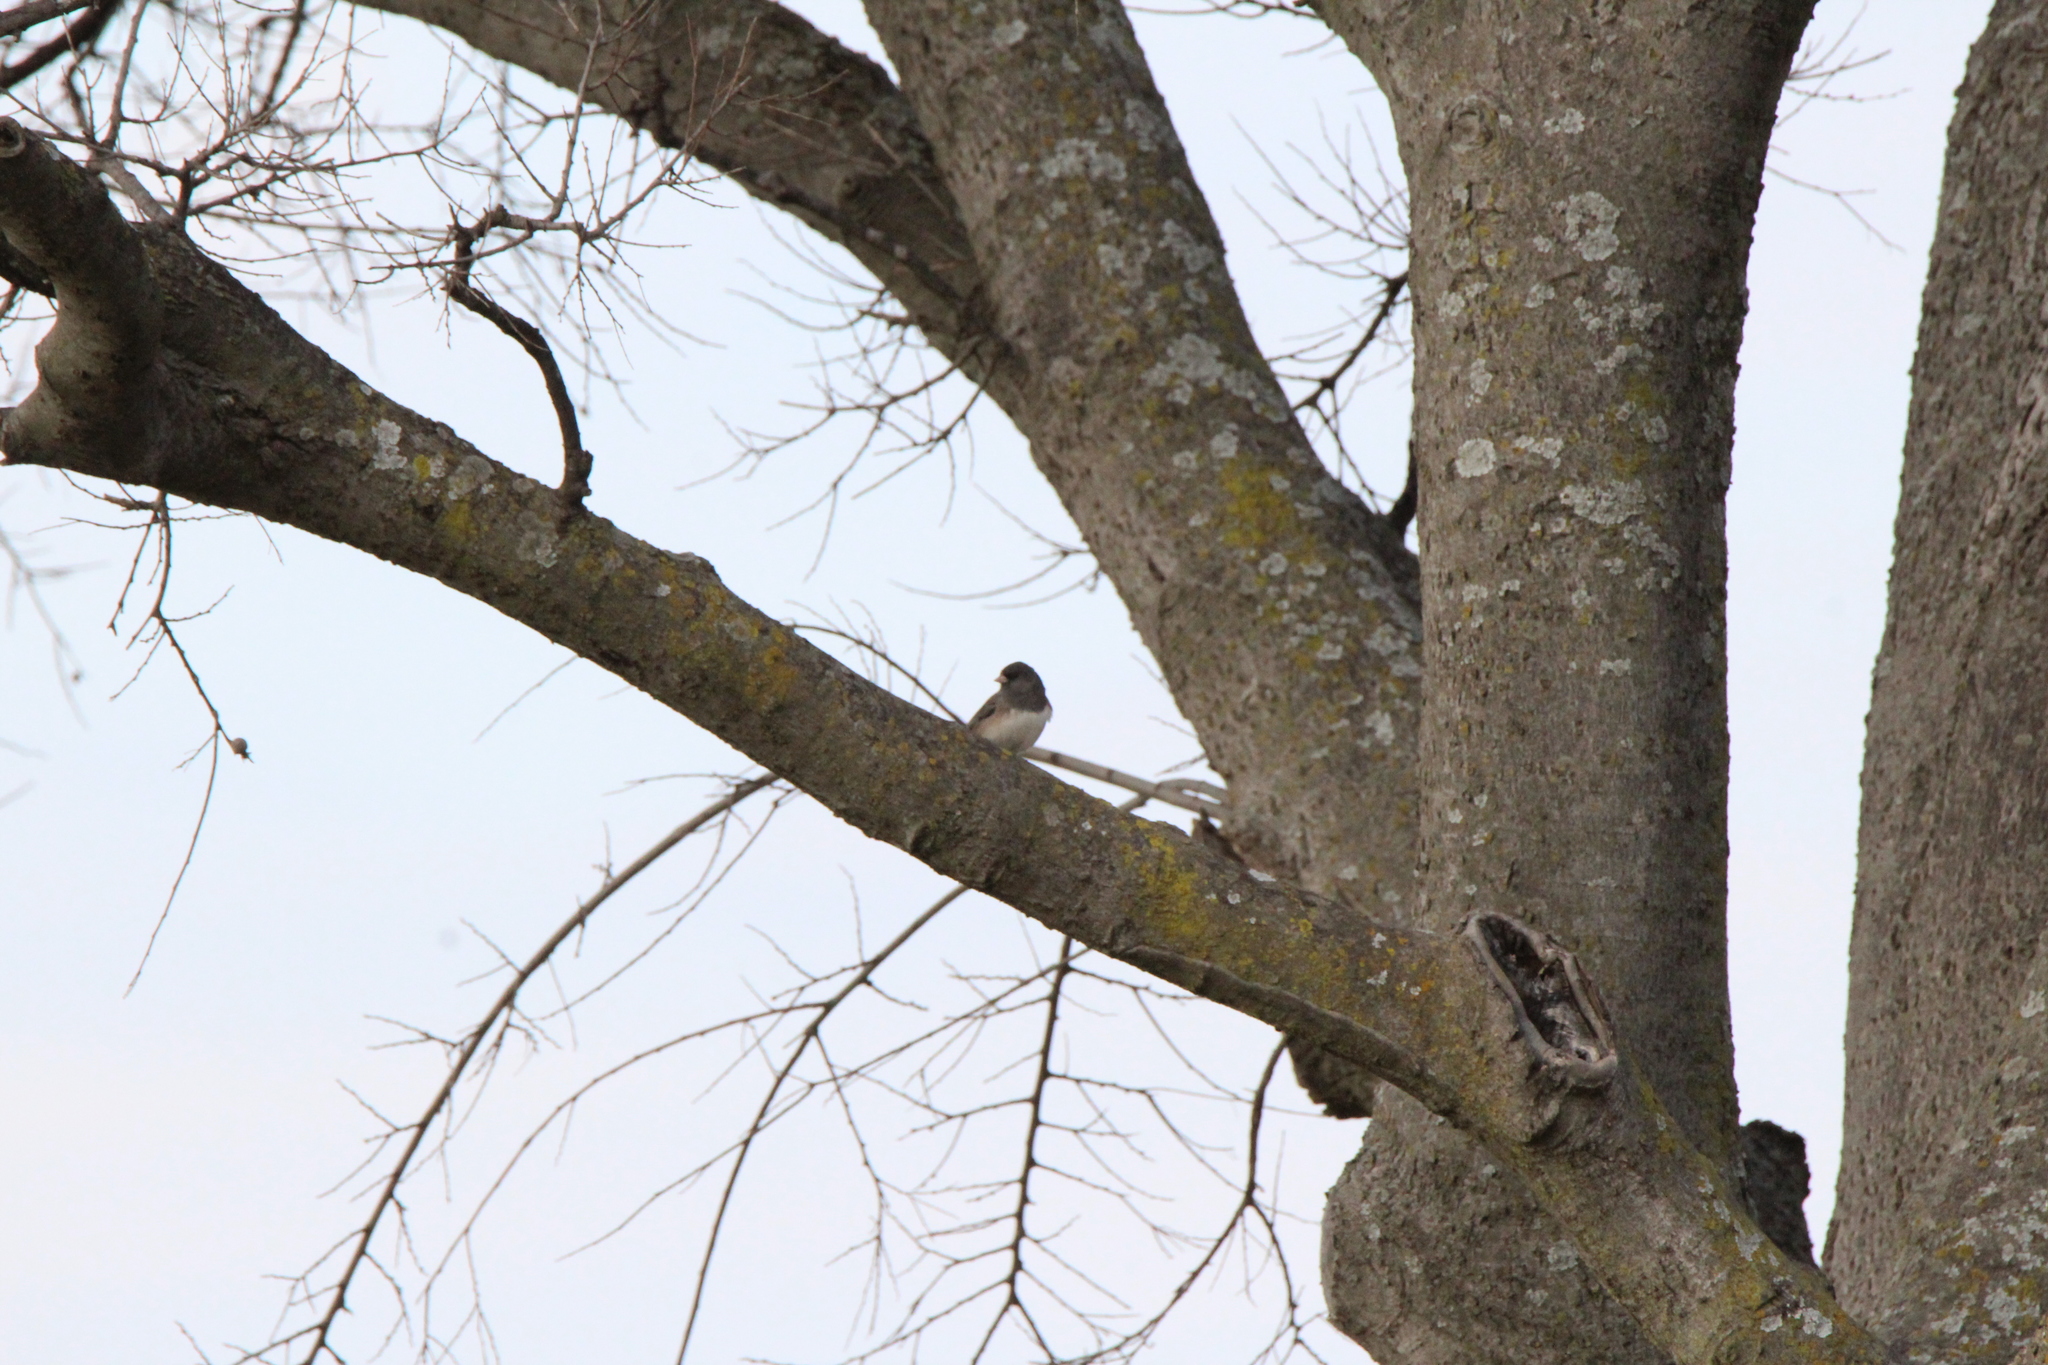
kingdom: Animalia
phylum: Chordata
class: Aves
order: Passeriformes
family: Passerellidae
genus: Junco
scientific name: Junco hyemalis
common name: Dark-eyed junco
